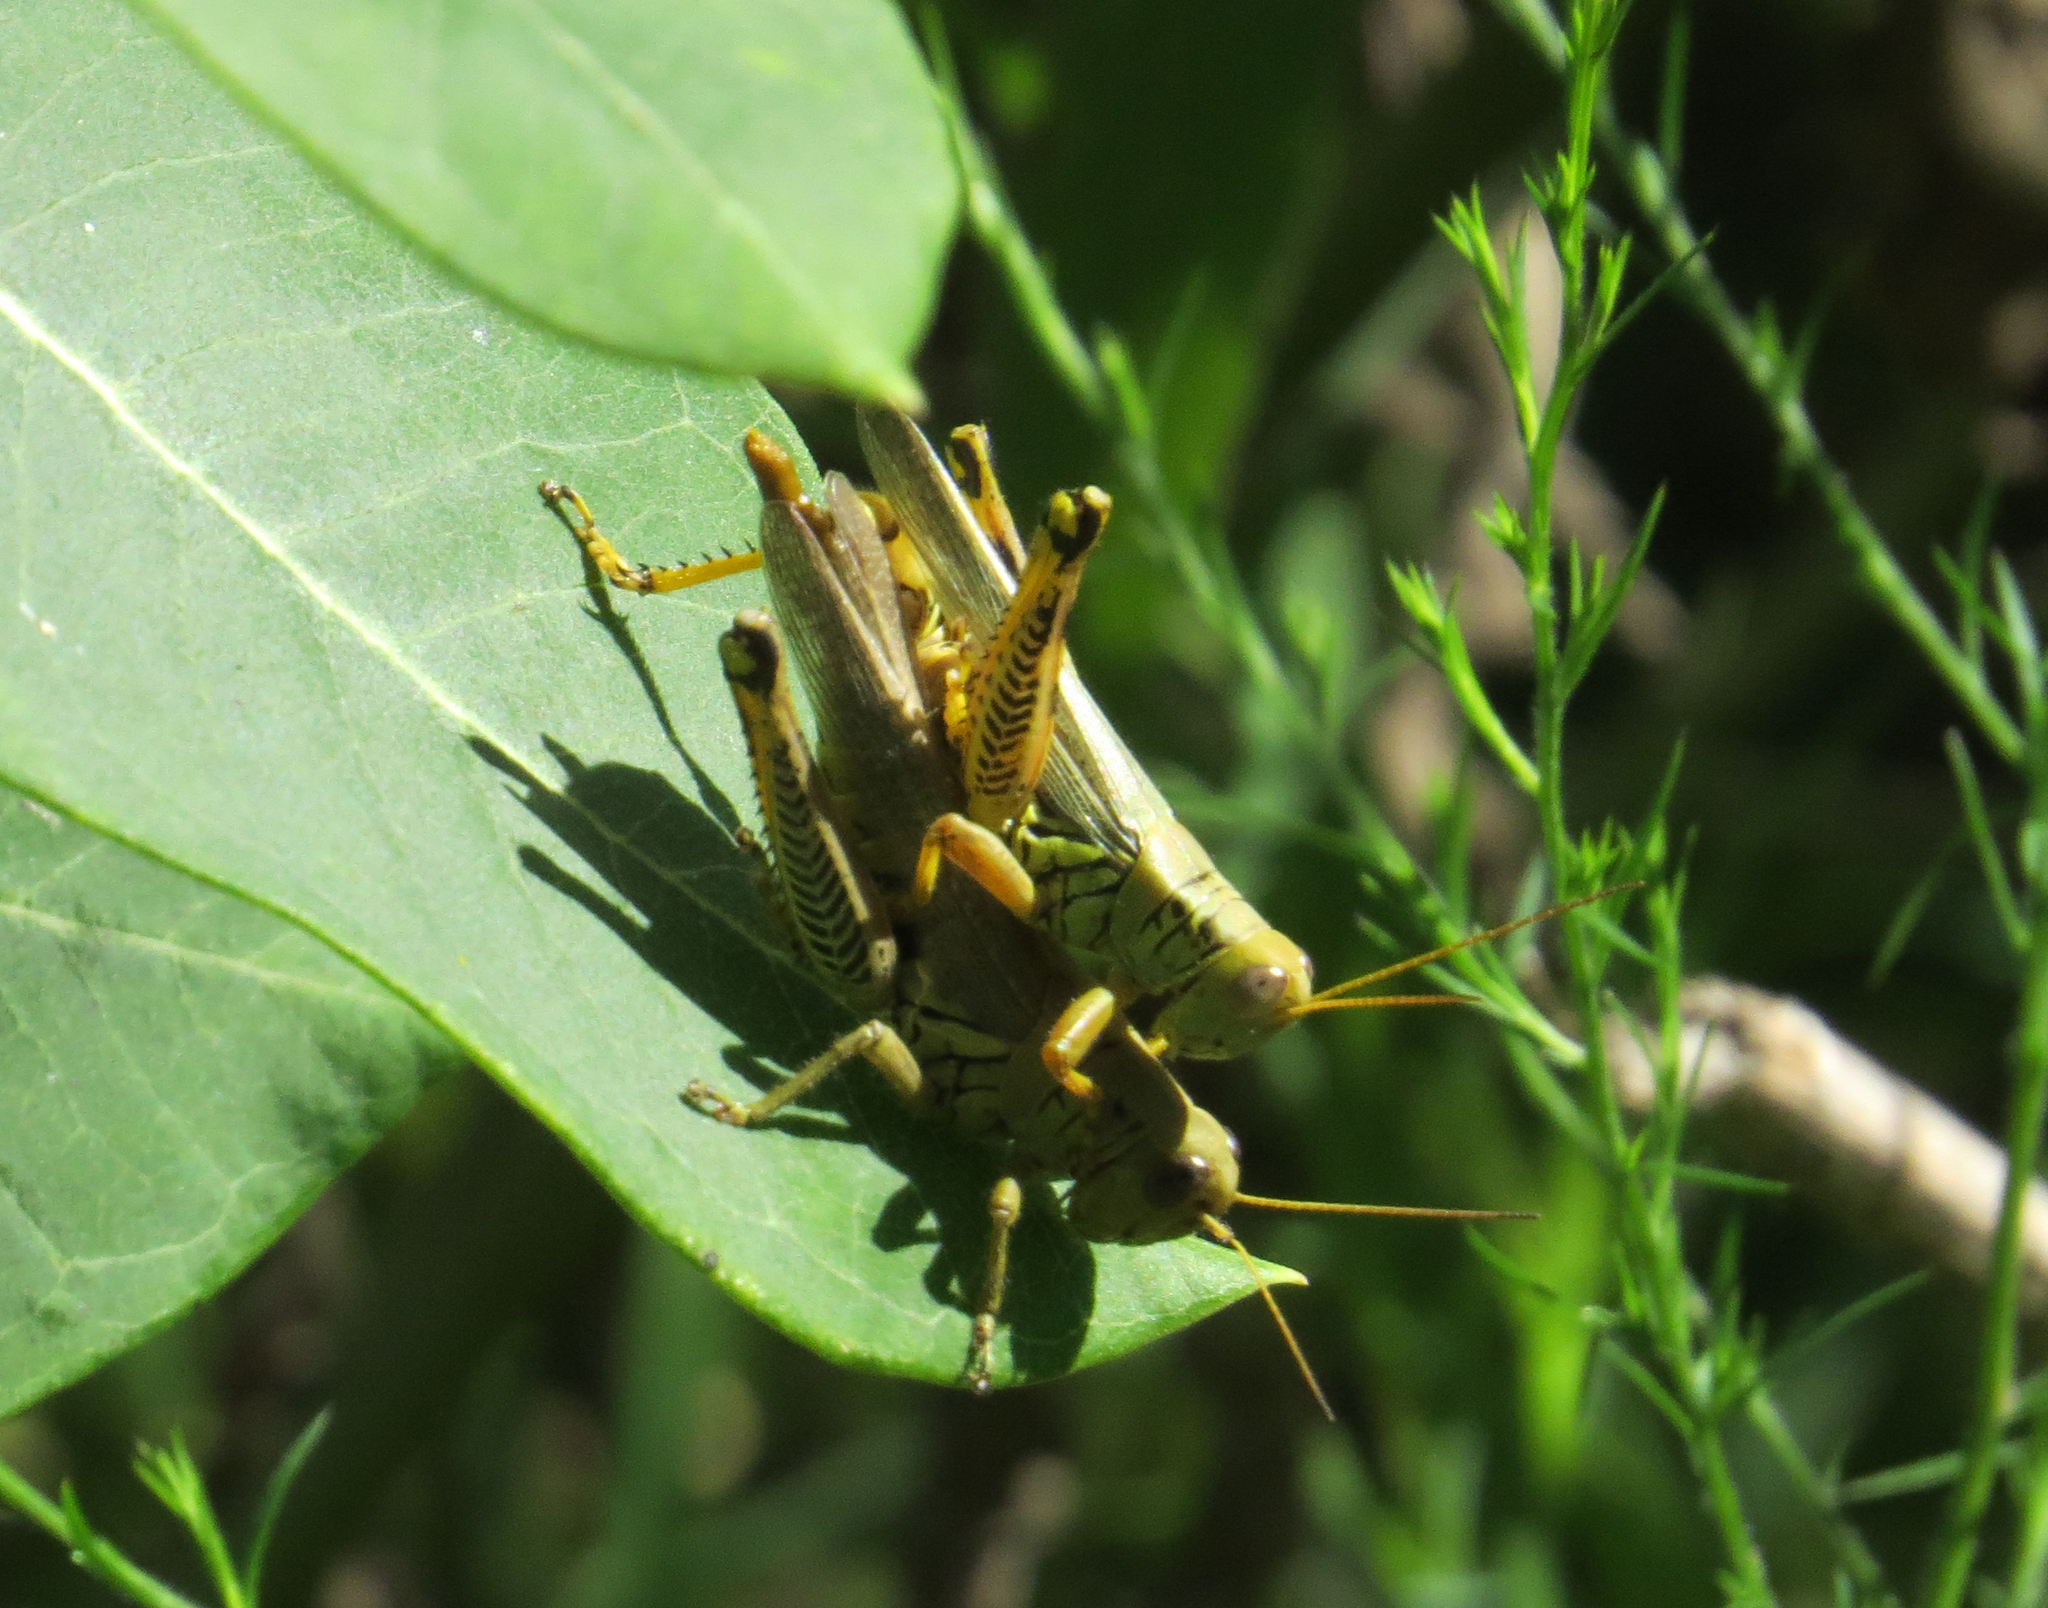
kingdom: Animalia
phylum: Arthropoda
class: Insecta
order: Orthoptera
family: Acrididae
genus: Melanoplus
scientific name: Melanoplus differentialis
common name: Differential grasshopper
